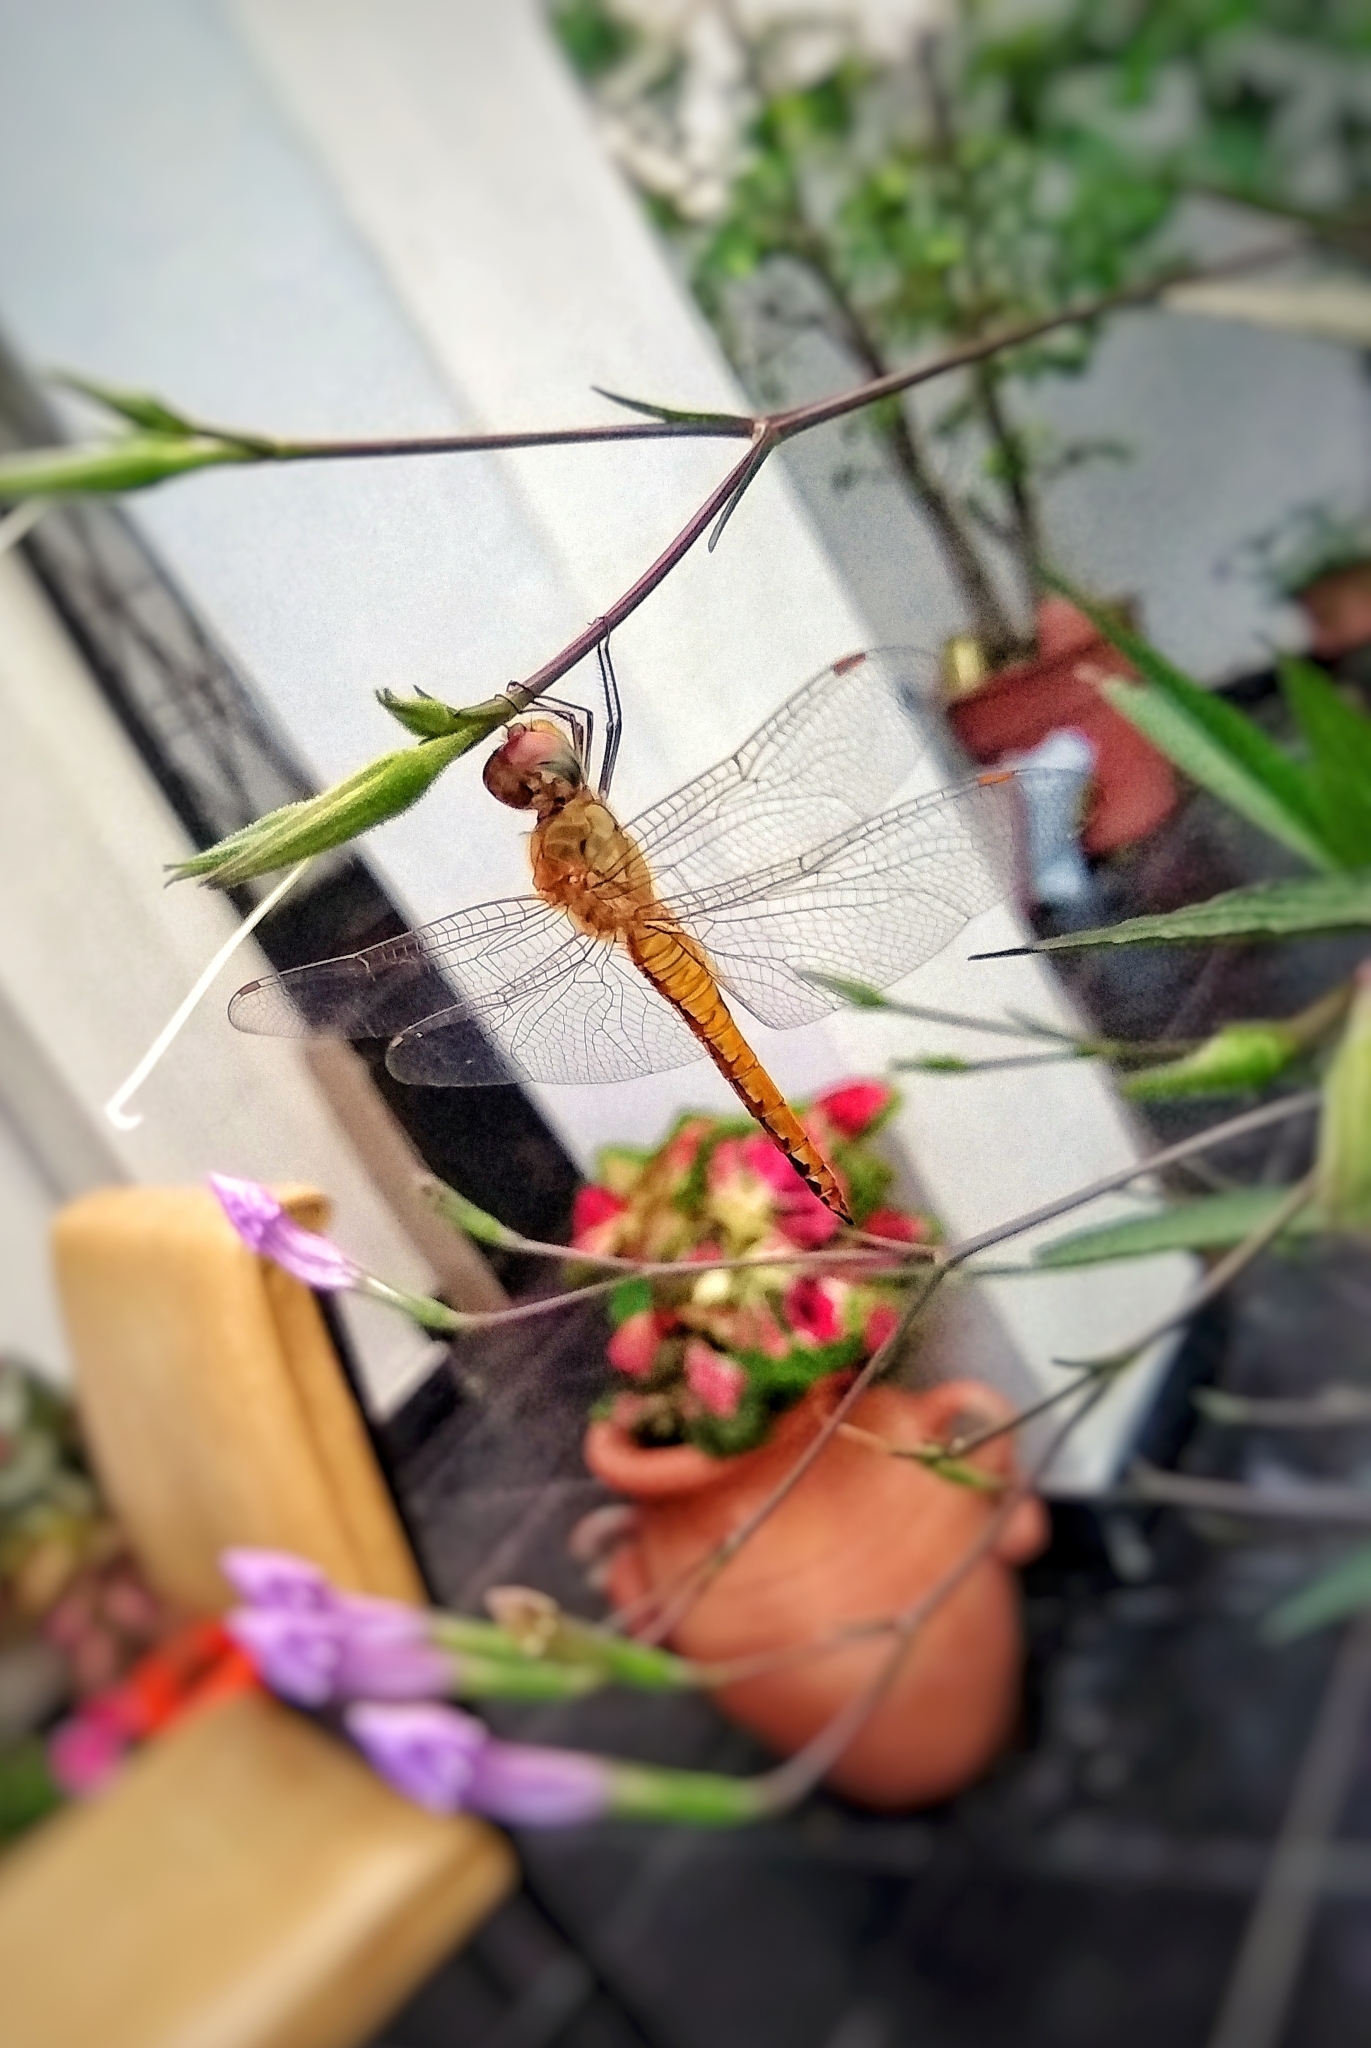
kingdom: Animalia
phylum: Arthropoda
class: Insecta
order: Odonata
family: Libellulidae
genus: Pantala
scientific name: Pantala flavescens
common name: Wandering glider
